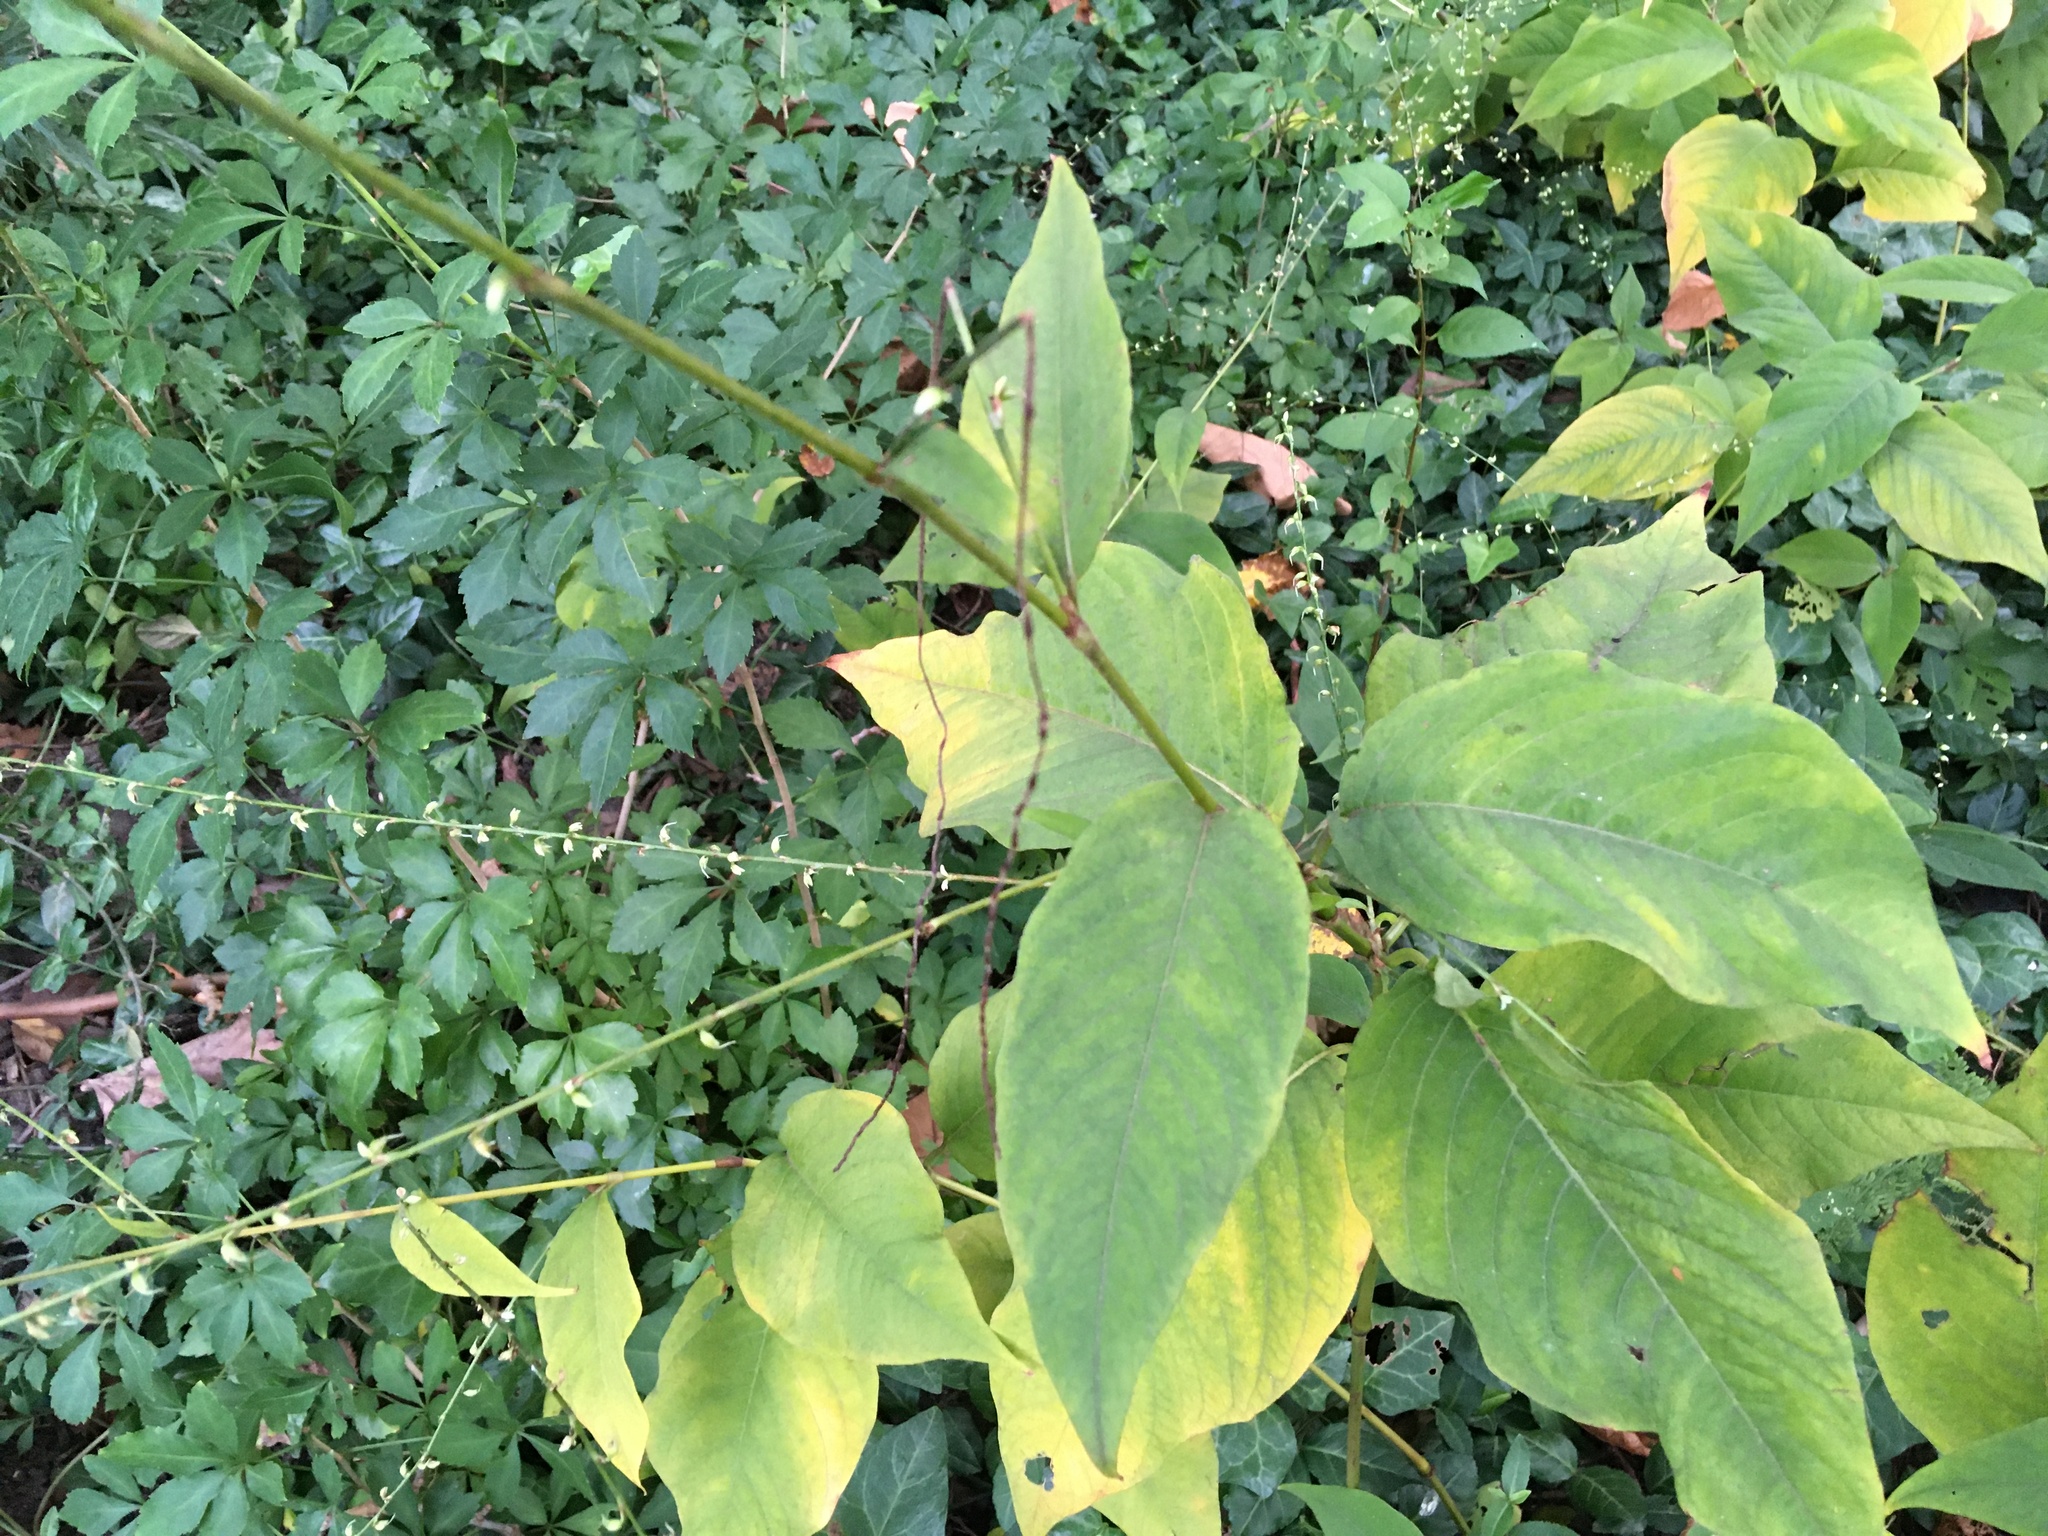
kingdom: Plantae
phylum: Tracheophyta
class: Magnoliopsida
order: Caryophyllales
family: Polygonaceae
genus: Persicaria
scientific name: Persicaria virginiana
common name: Jumpseed
